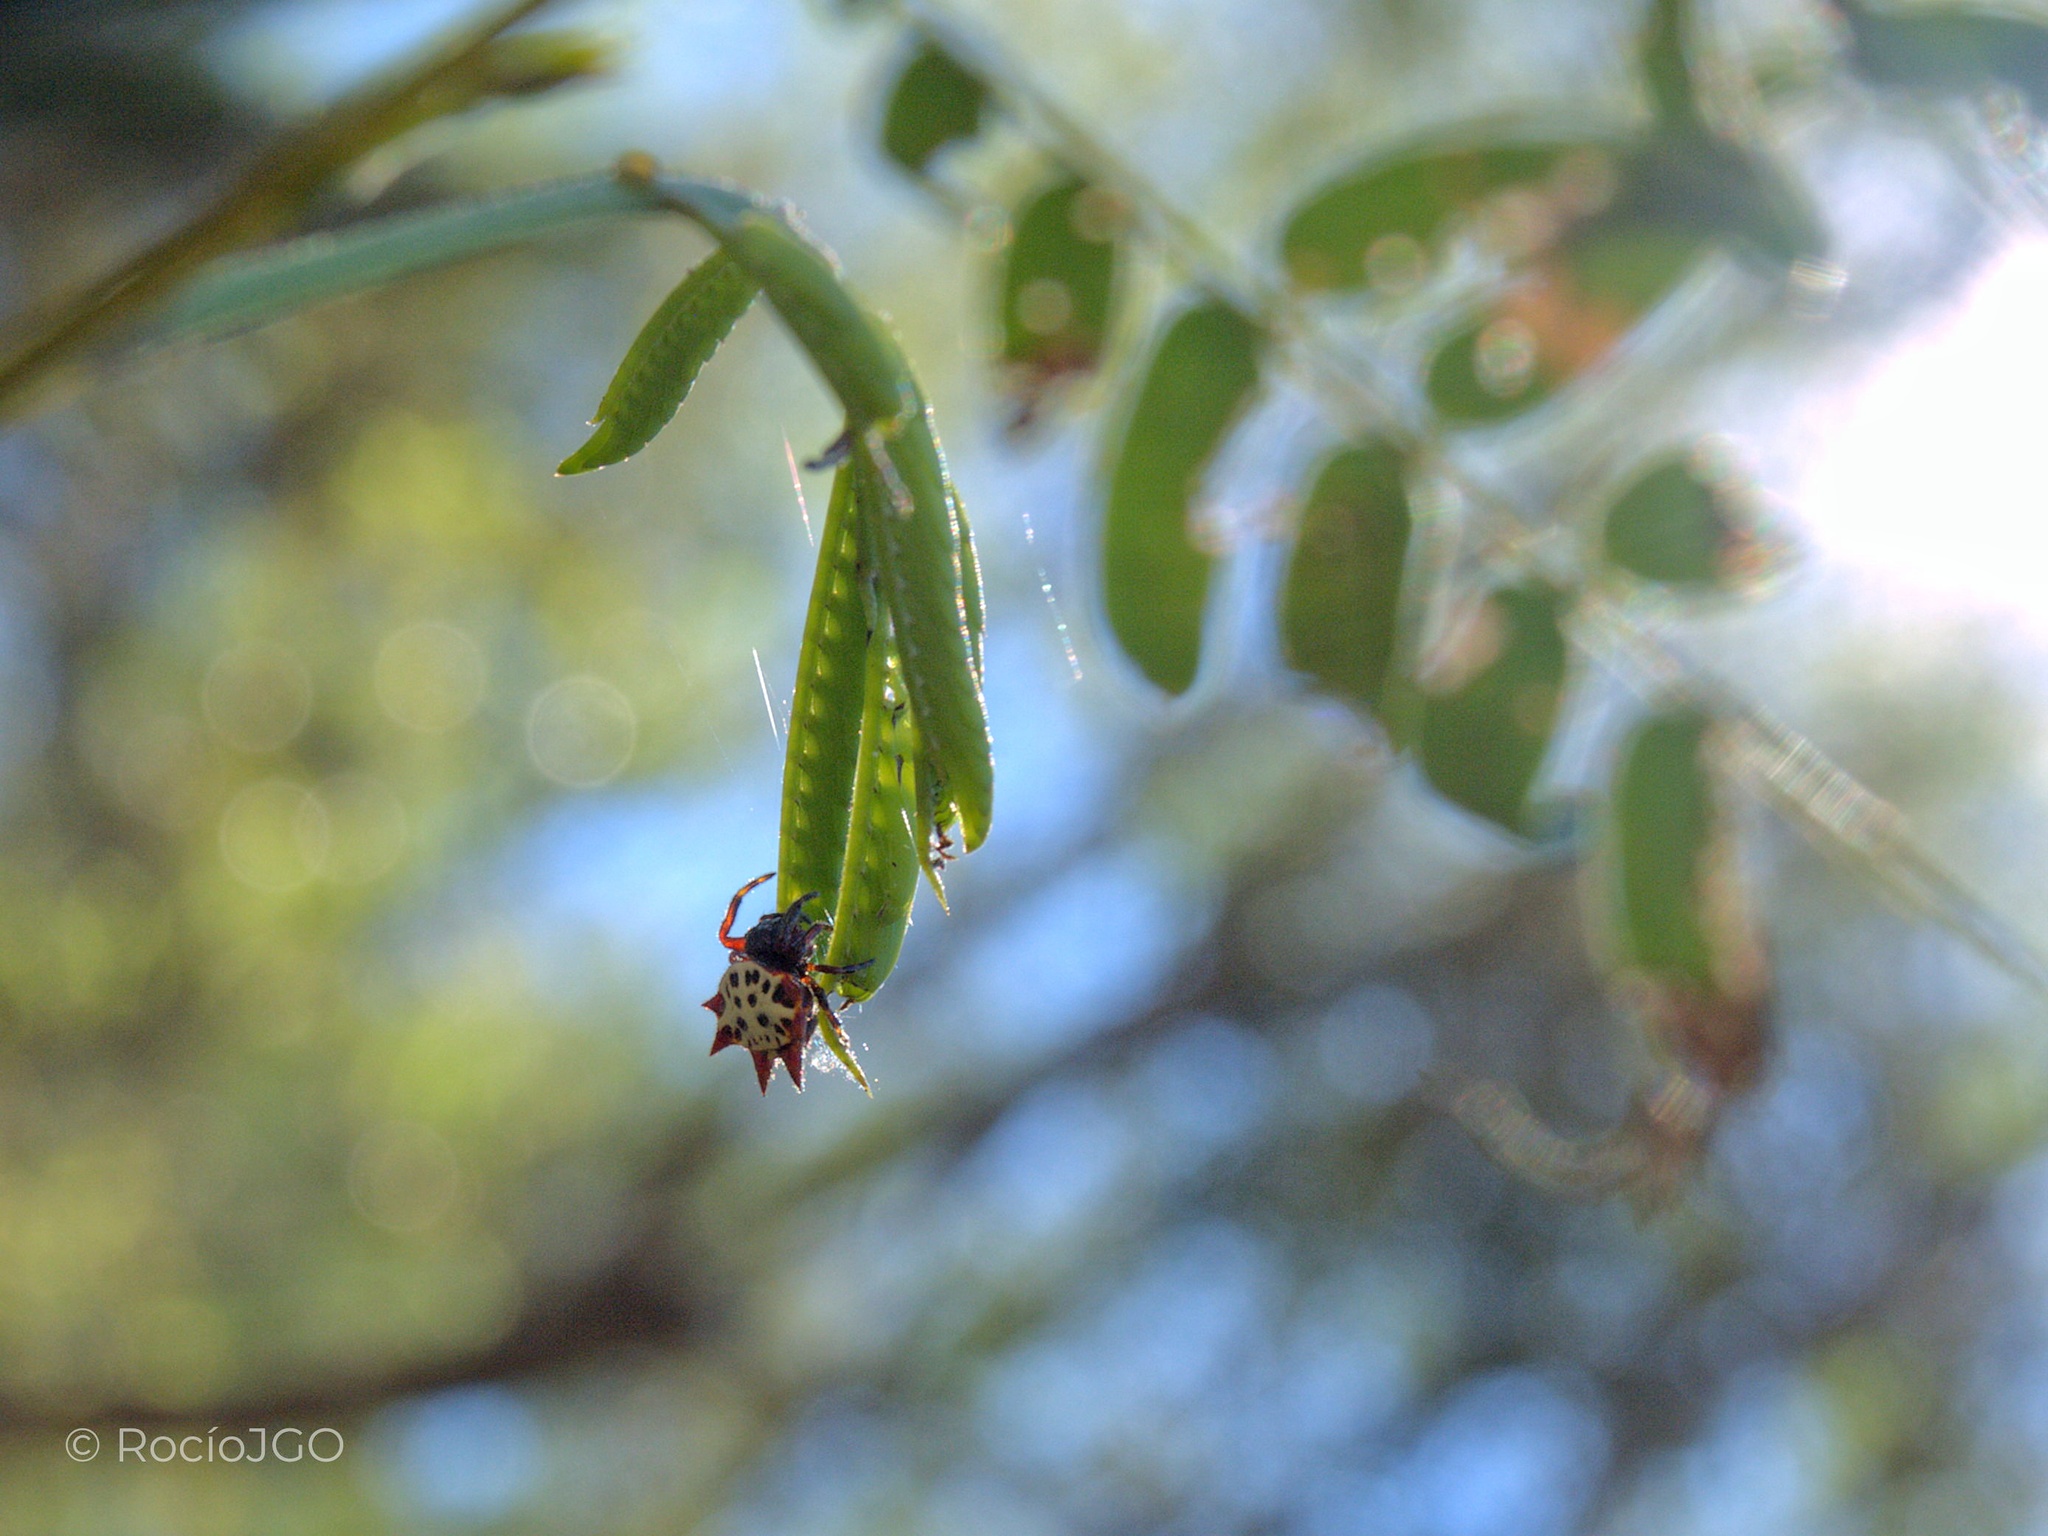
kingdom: Animalia
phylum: Arthropoda
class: Arachnida
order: Araneae
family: Araneidae
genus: Gasteracantha
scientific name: Gasteracantha cancriformis
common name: Orb weavers
